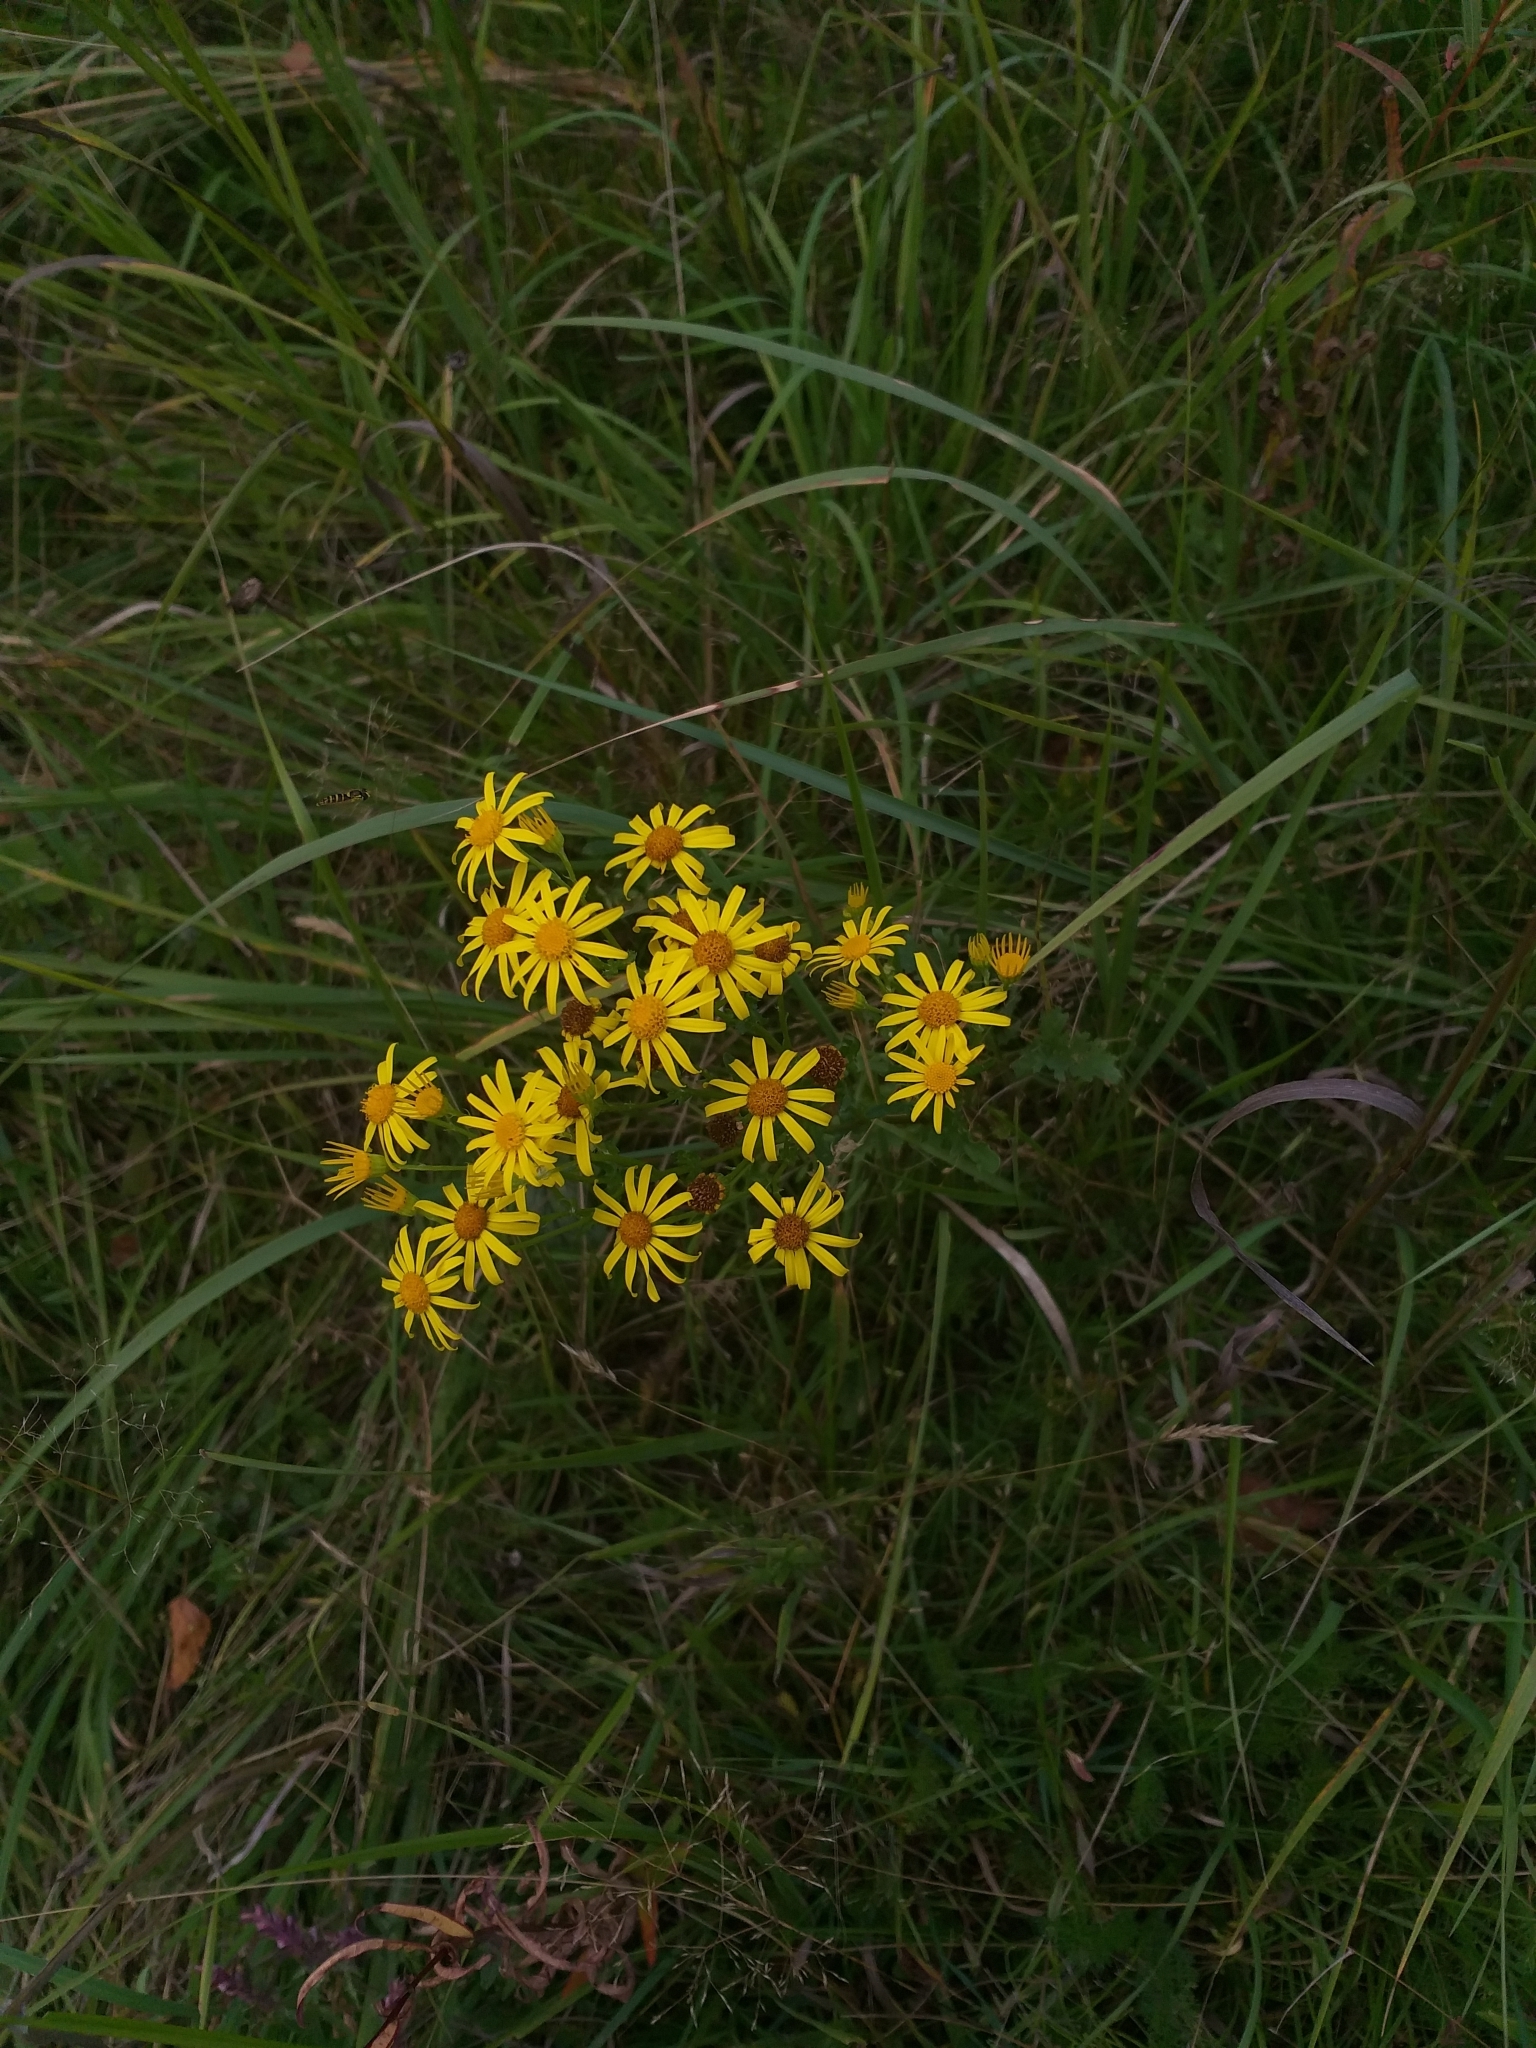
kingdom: Plantae
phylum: Tracheophyta
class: Magnoliopsida
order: Asterales
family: Asteraceae
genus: Jacobaea
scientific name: Jacobaea vulgaris
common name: Stinking willie
